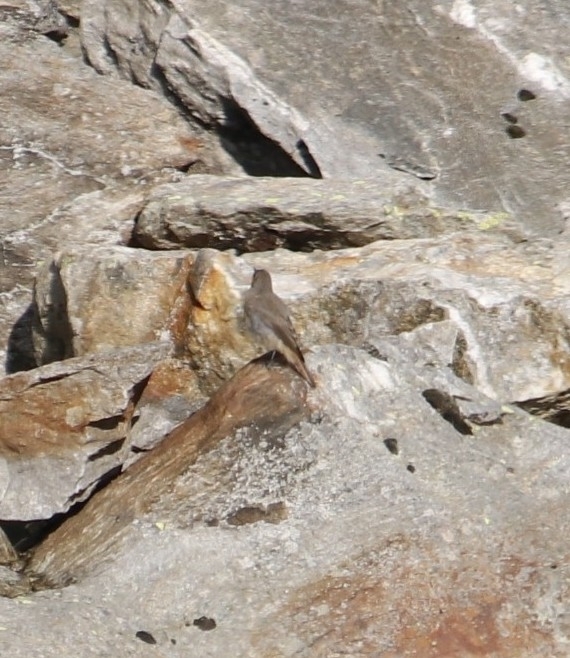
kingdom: Animalia
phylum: Chordata
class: Aves
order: Passeriformes
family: Muscicapidae
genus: Phoenicurus
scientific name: Phoenicurus ochruros
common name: Black redstart
